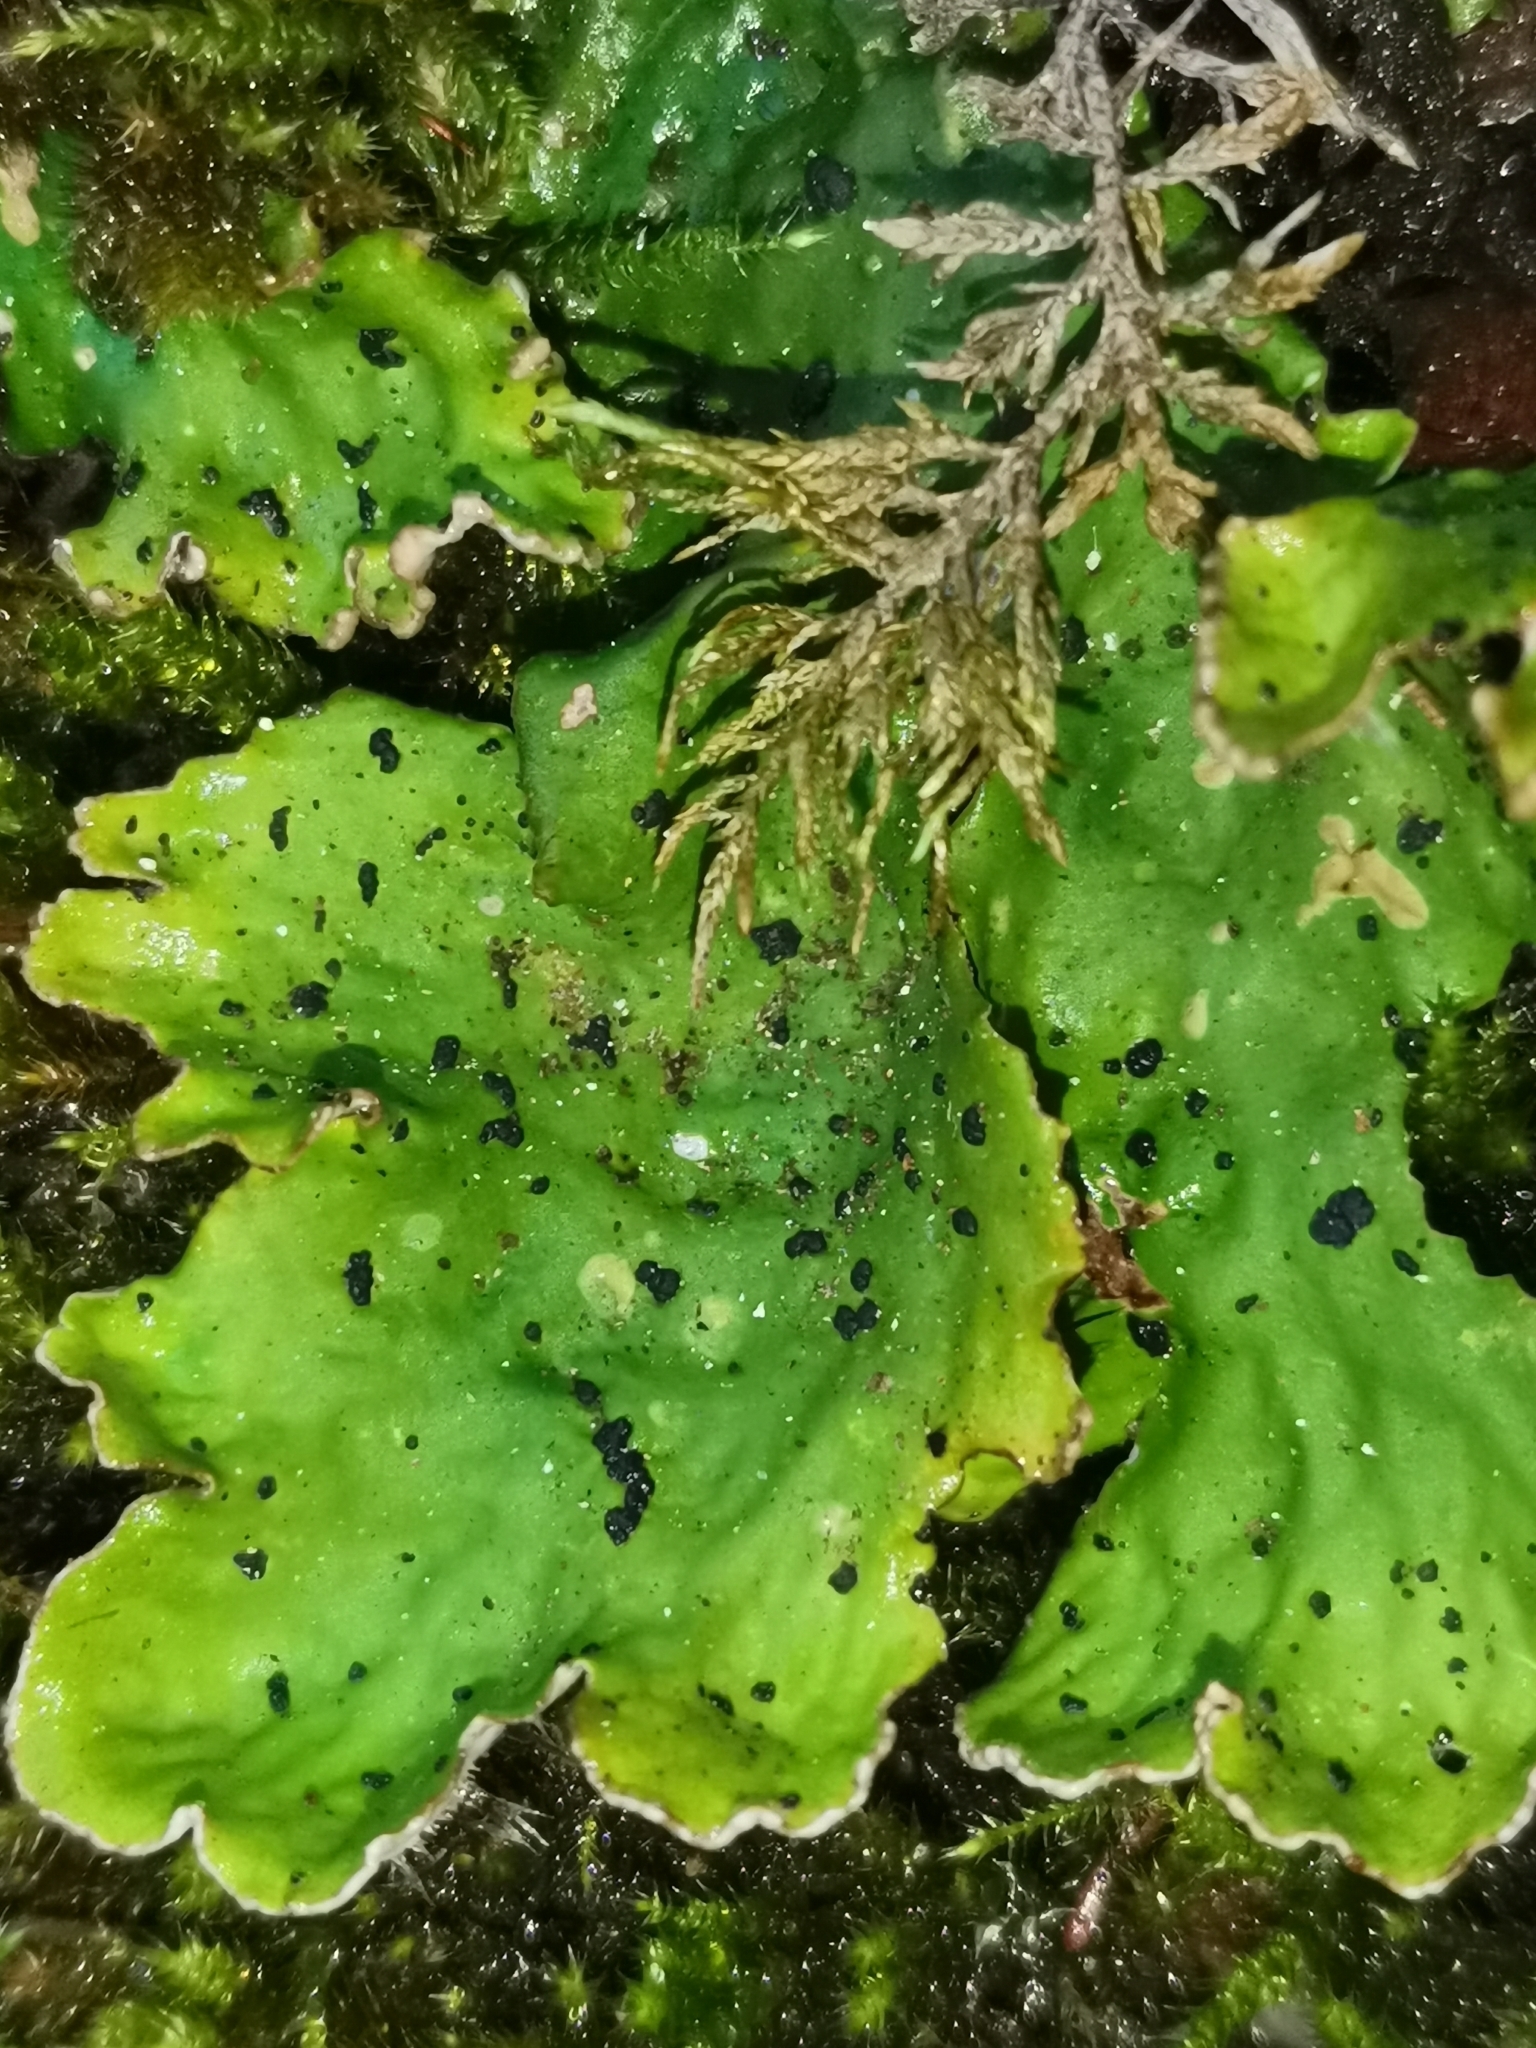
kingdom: Fungi
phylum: Ascomycota
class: Lecanoromycetes
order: Peltigerales
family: Peltigeraceae
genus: Peltigera
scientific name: Peltigera leucophlebia
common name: Ruffled freckle pelt lichen
